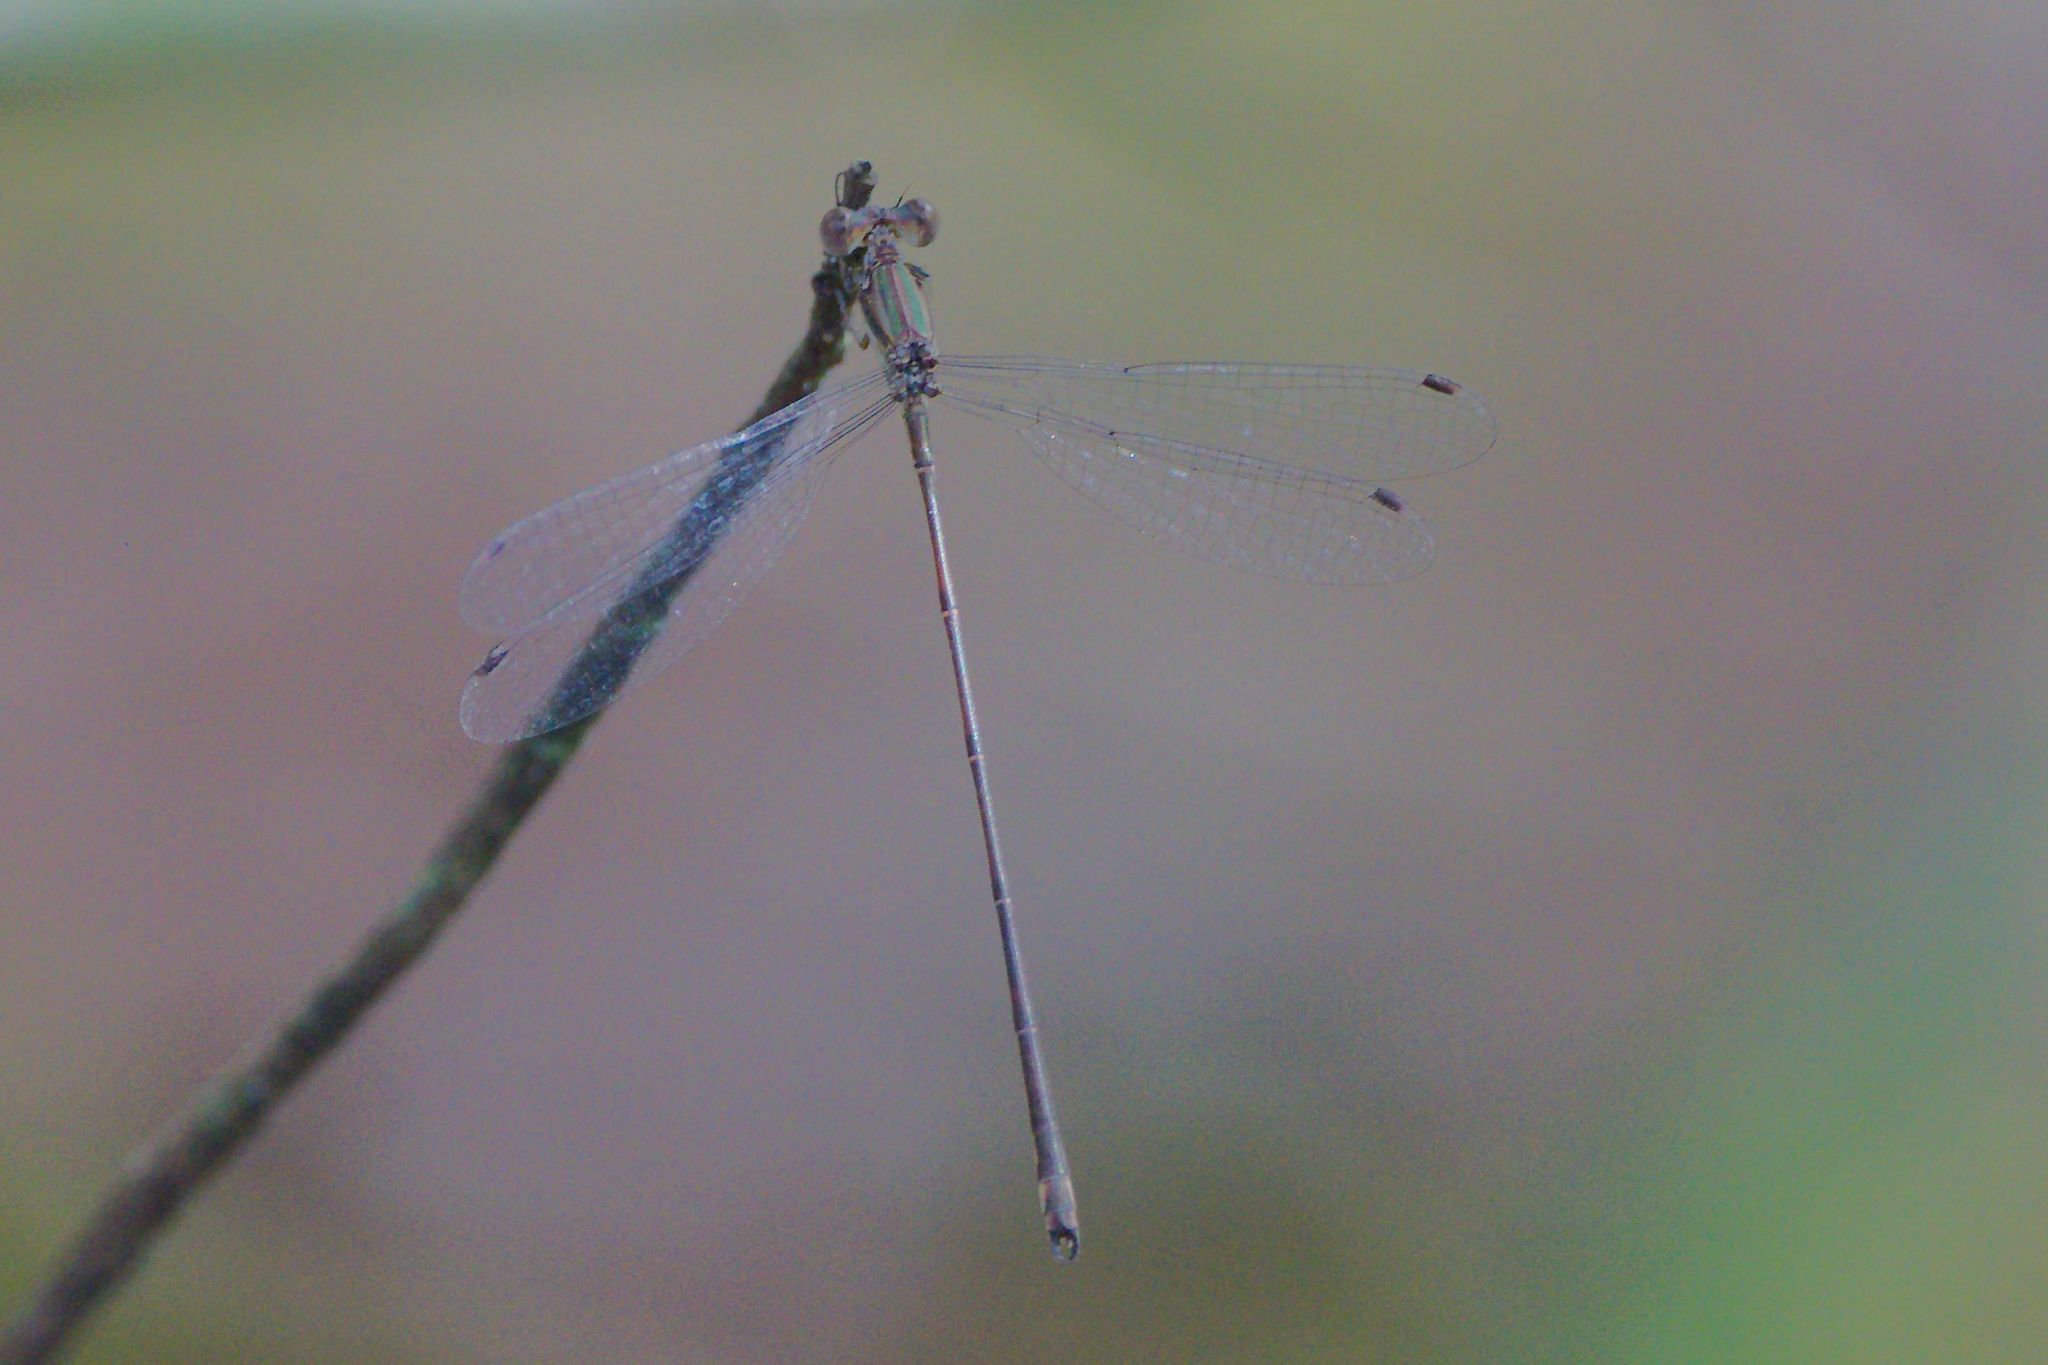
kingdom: Animalia
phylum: Arthropoda
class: Insecta
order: Odonata
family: Lestidae
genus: Lestes
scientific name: Lestes tenuatus
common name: Blue-striped spreadwing
